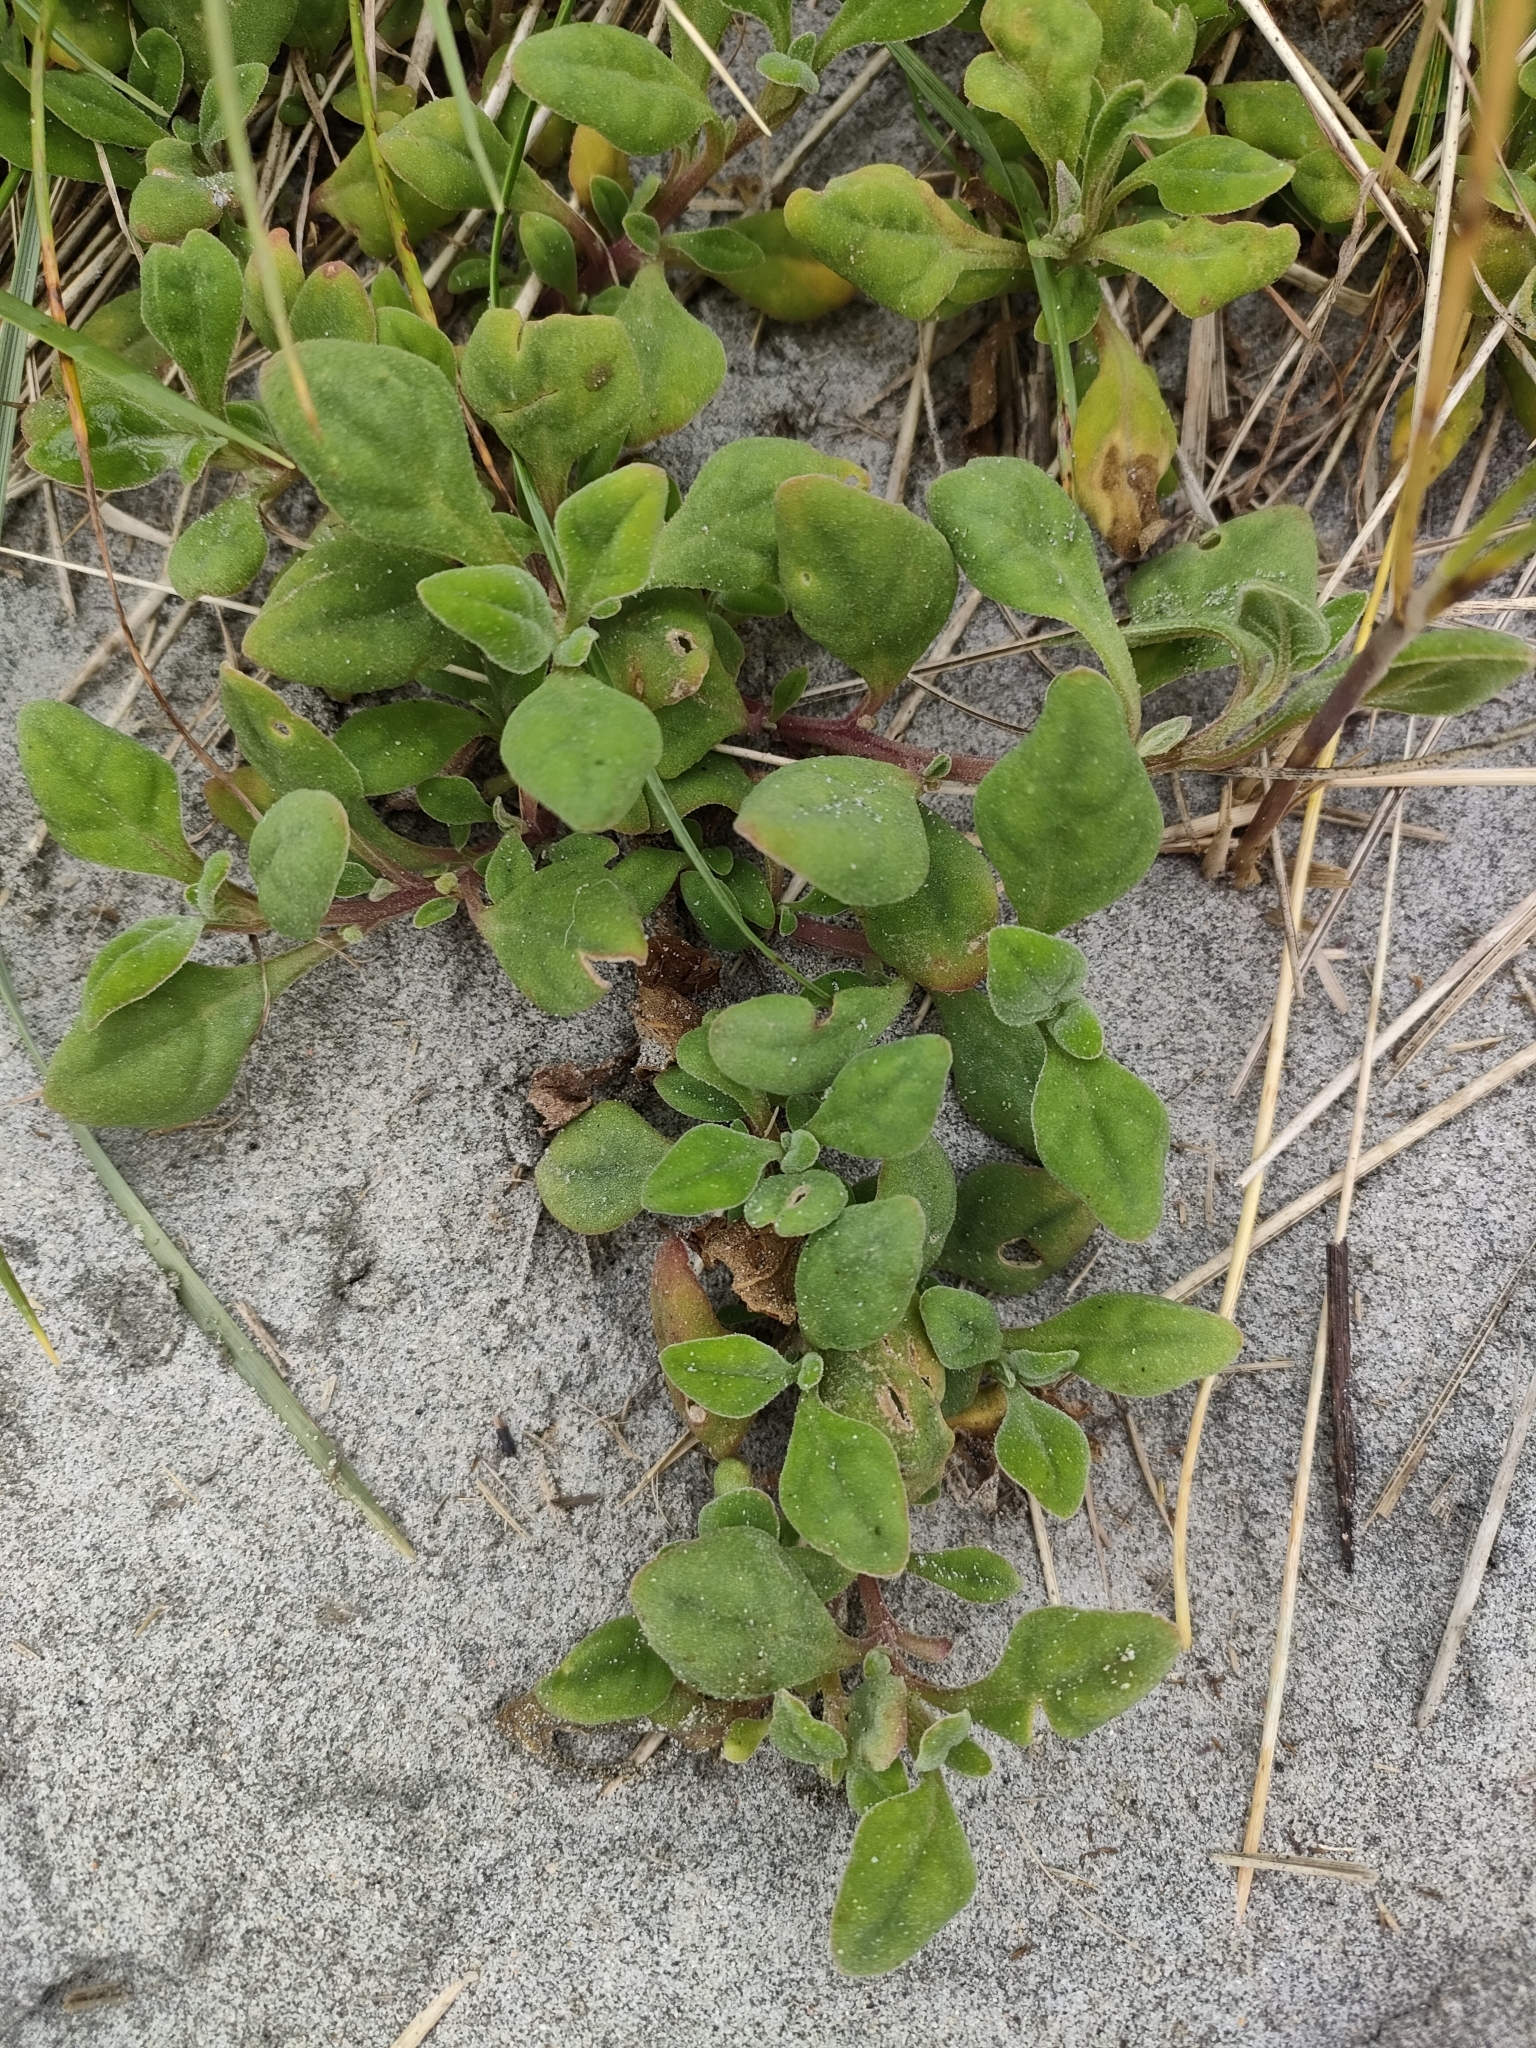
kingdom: Plantae
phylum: Tracheophyta
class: Magnoliopsida
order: Caryophyllales
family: Aizoaceae
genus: Tetragonia
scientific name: Tetragonia implexicoma
